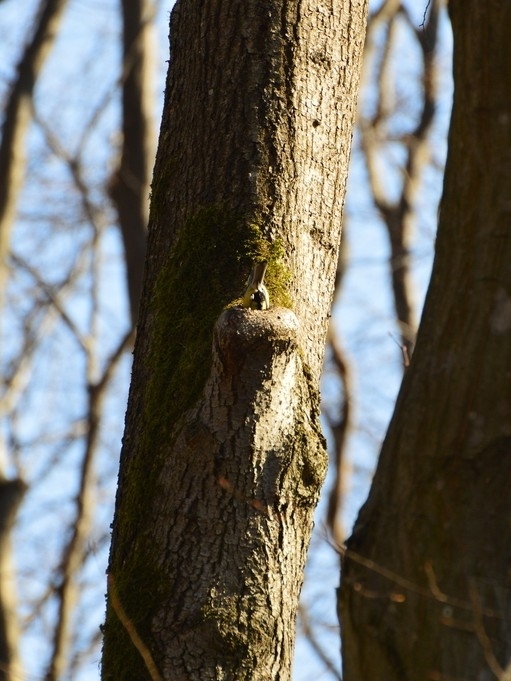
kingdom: Animalia
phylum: Chordata
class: Aves
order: Passeriformes
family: Paridae
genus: Parus
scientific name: Parus major
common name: Great tit
